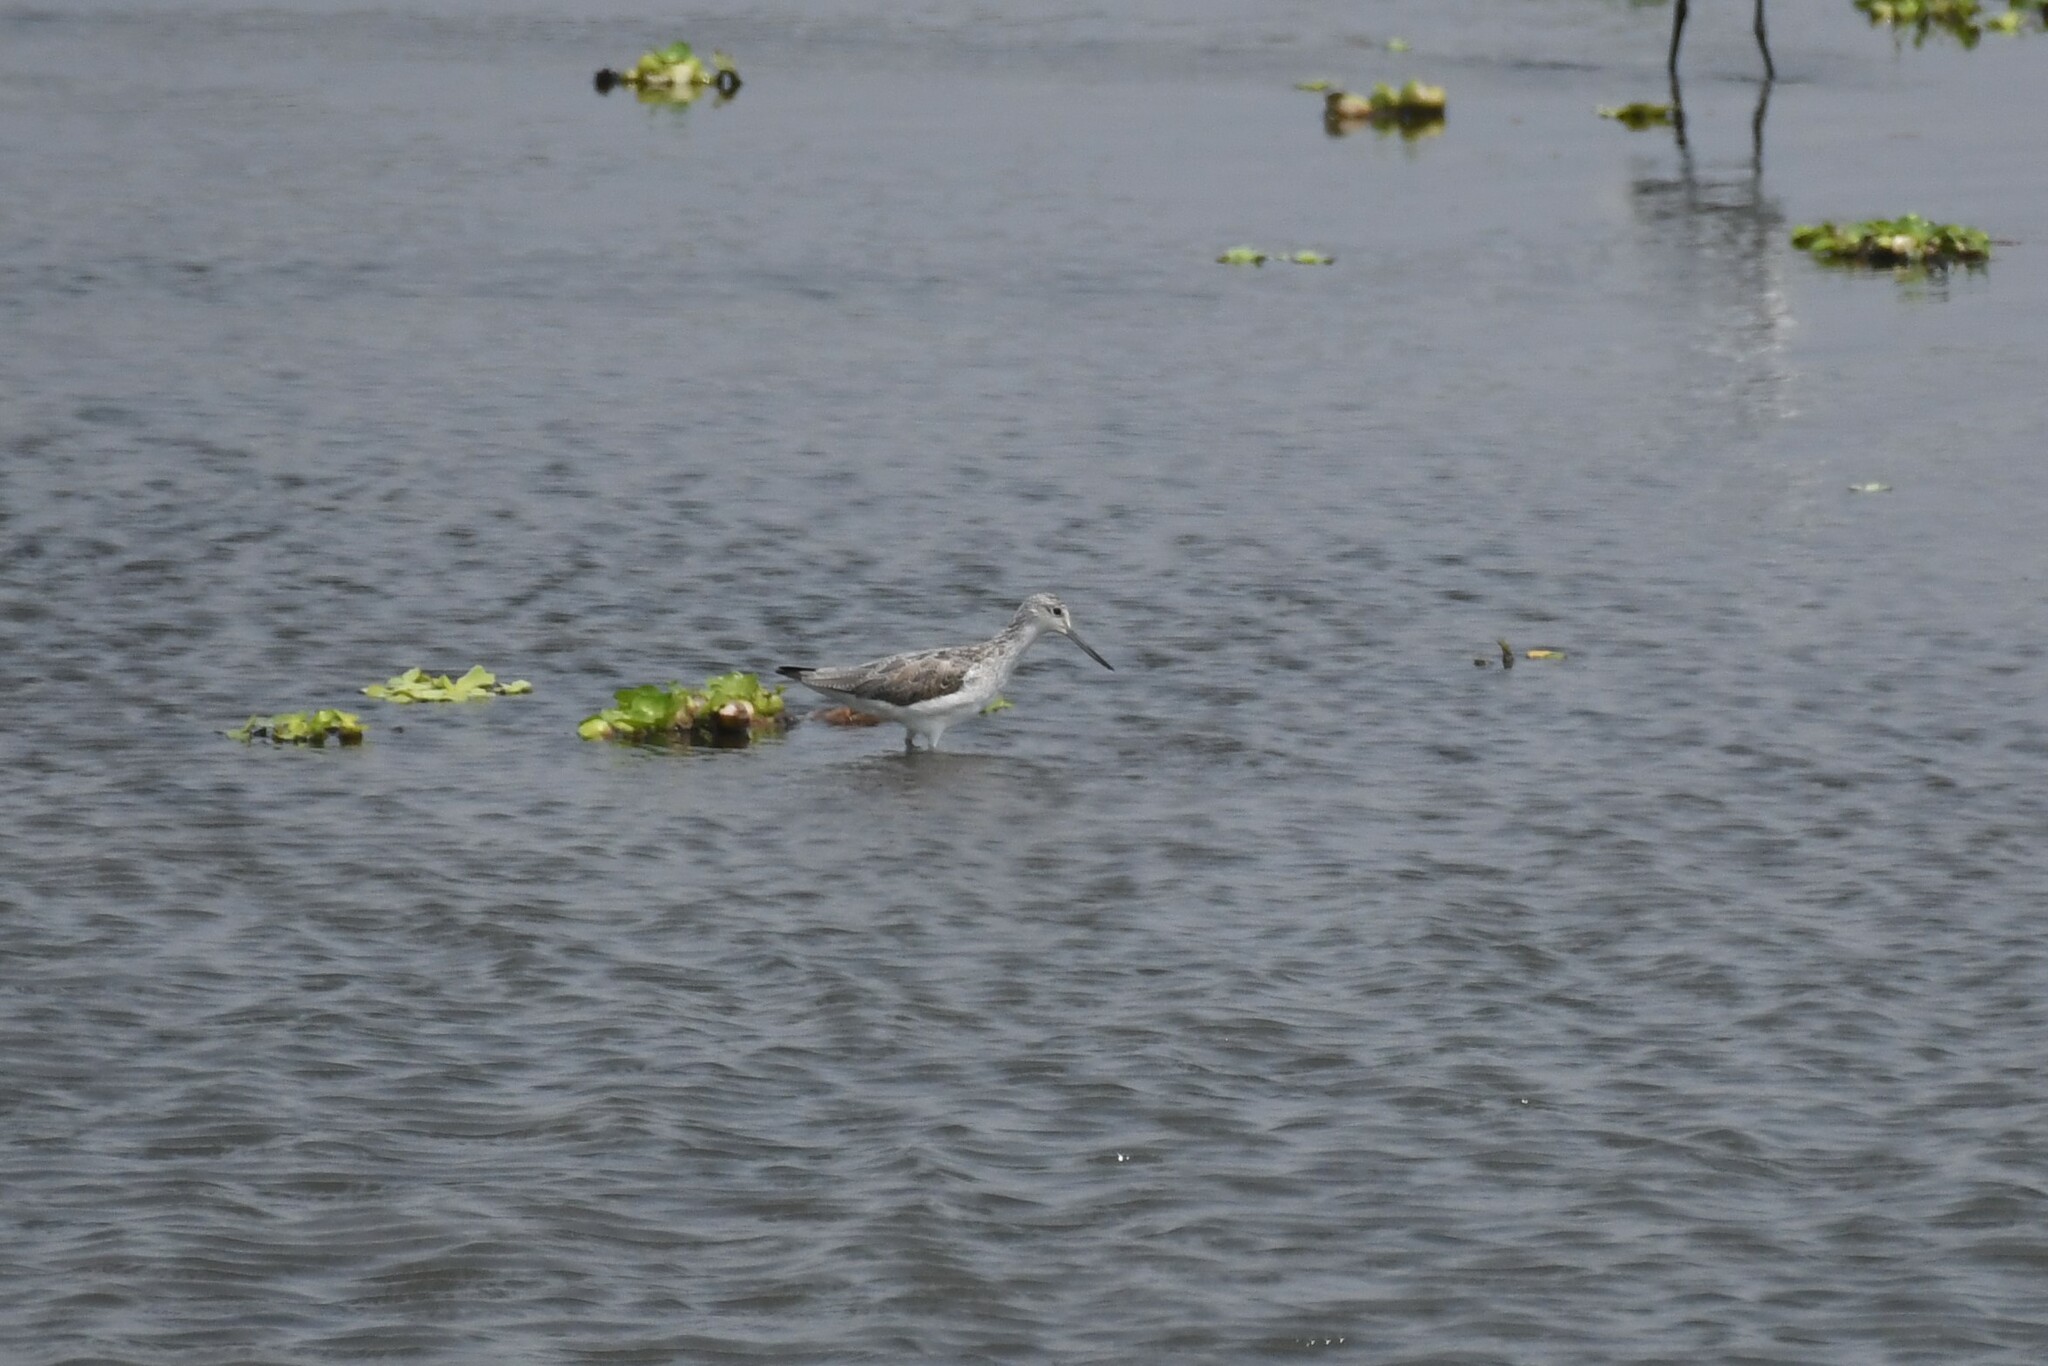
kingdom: Animalia
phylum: Chordata
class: Aves
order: Charadriiformes
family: Scolopacidae
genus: Tringa
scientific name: Tringa nebularia
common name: Common greenshank
